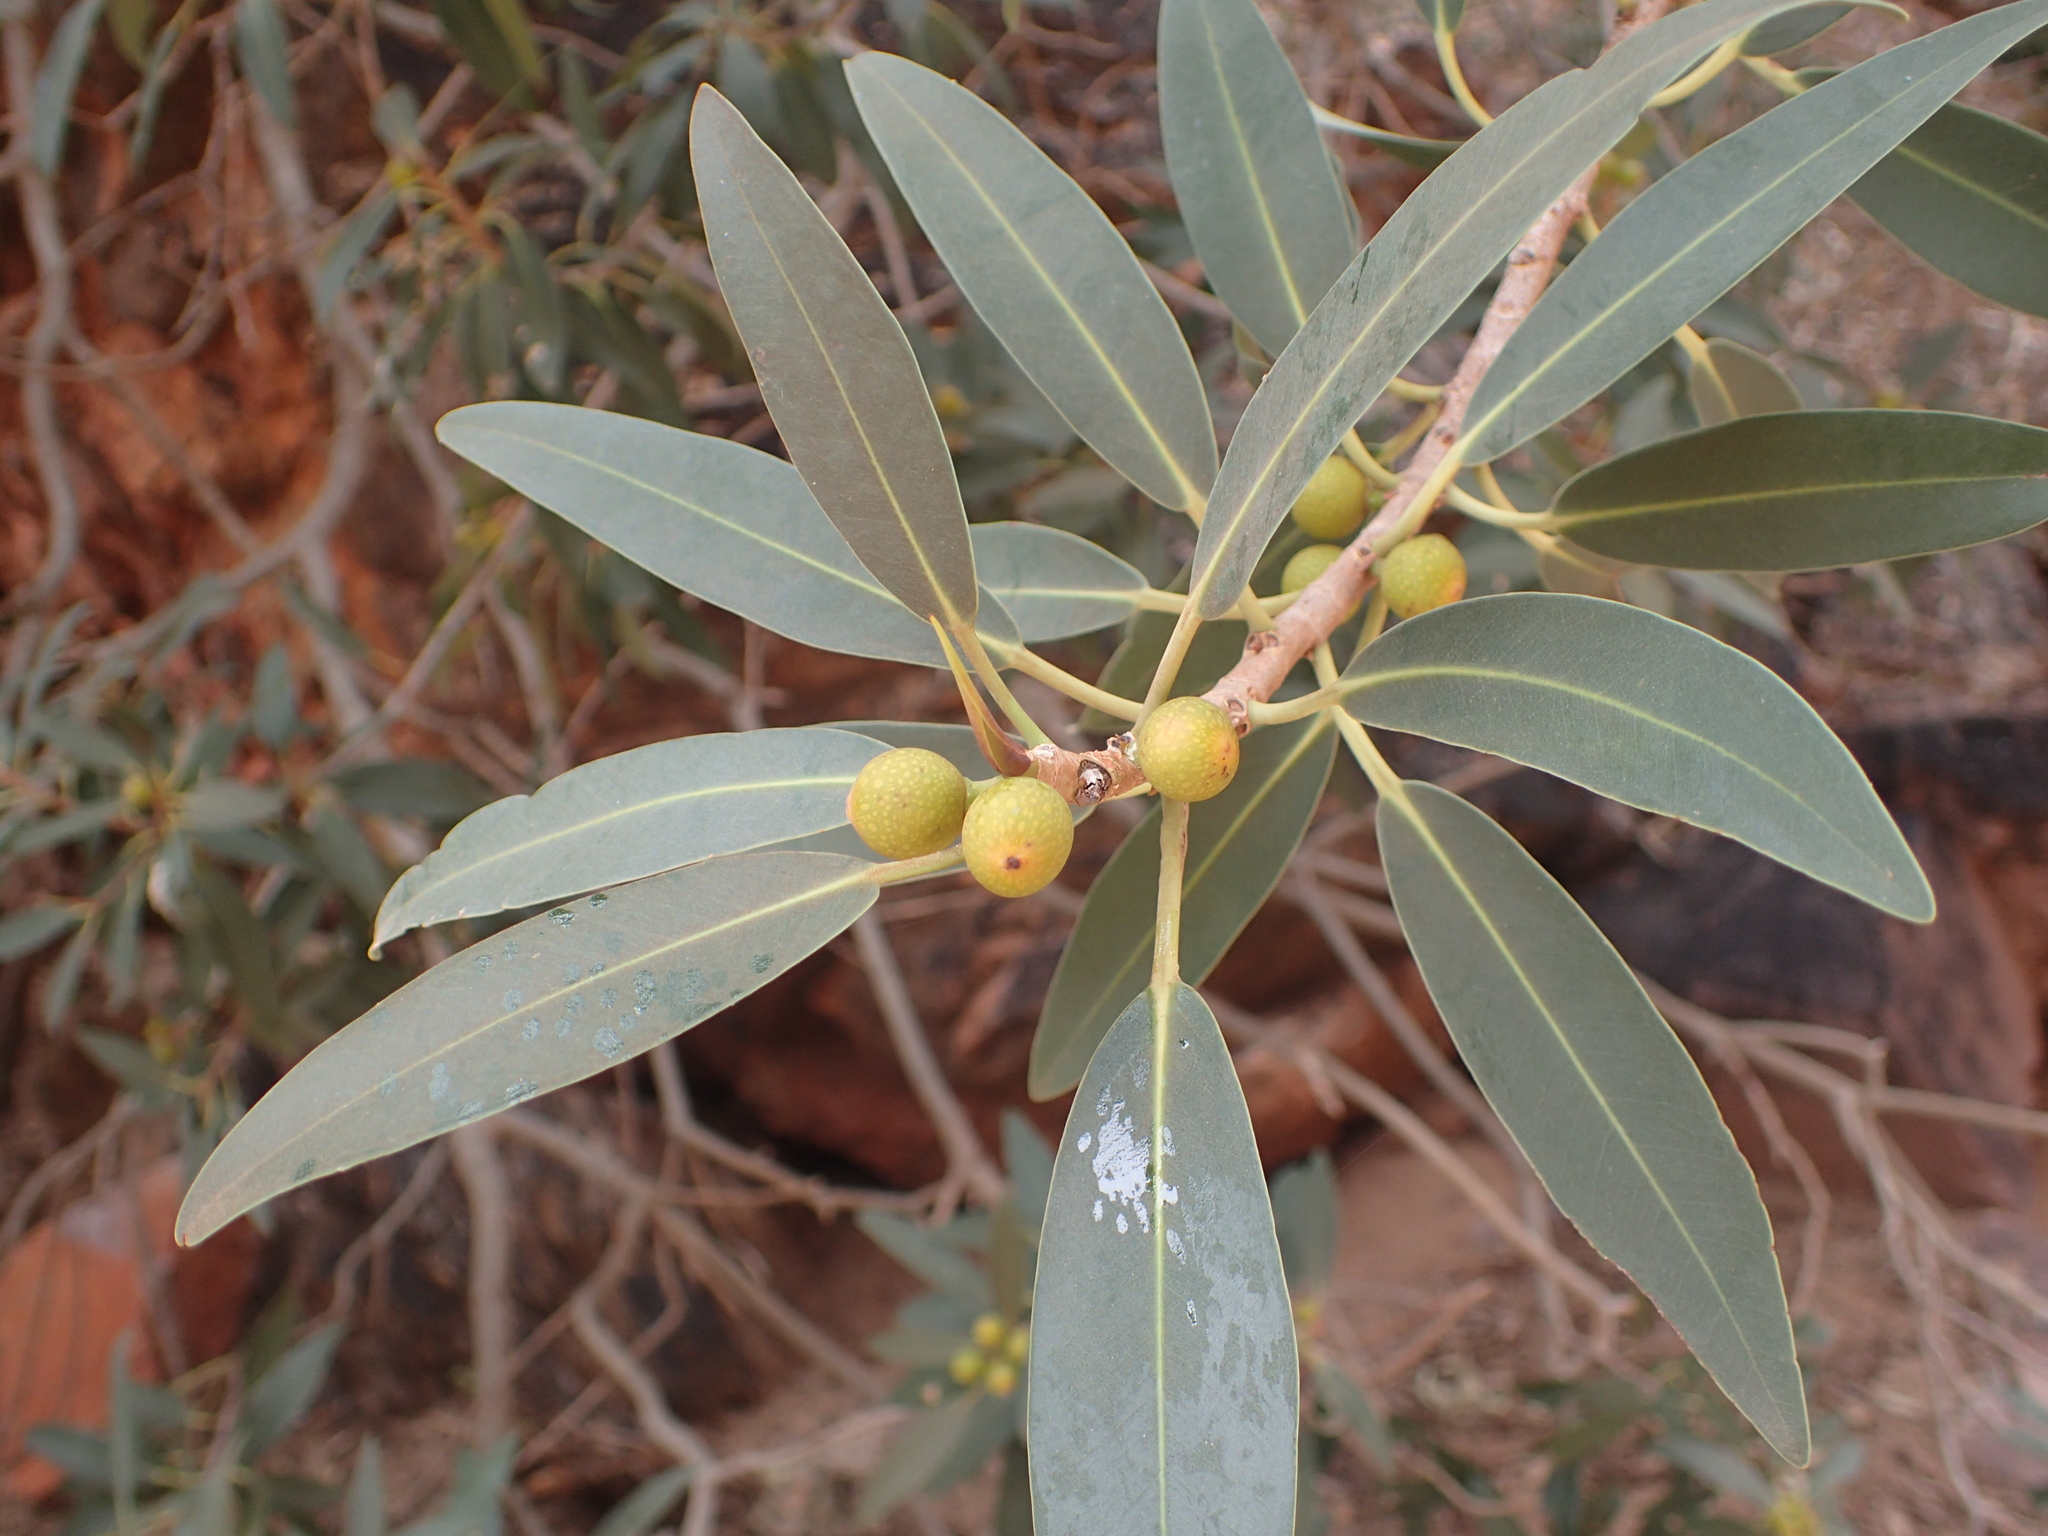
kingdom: Plantae
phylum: Tracheophyta
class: Magnoliopsida
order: Rosales
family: Moraceae
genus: Ficus
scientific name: Ficus desertorum
